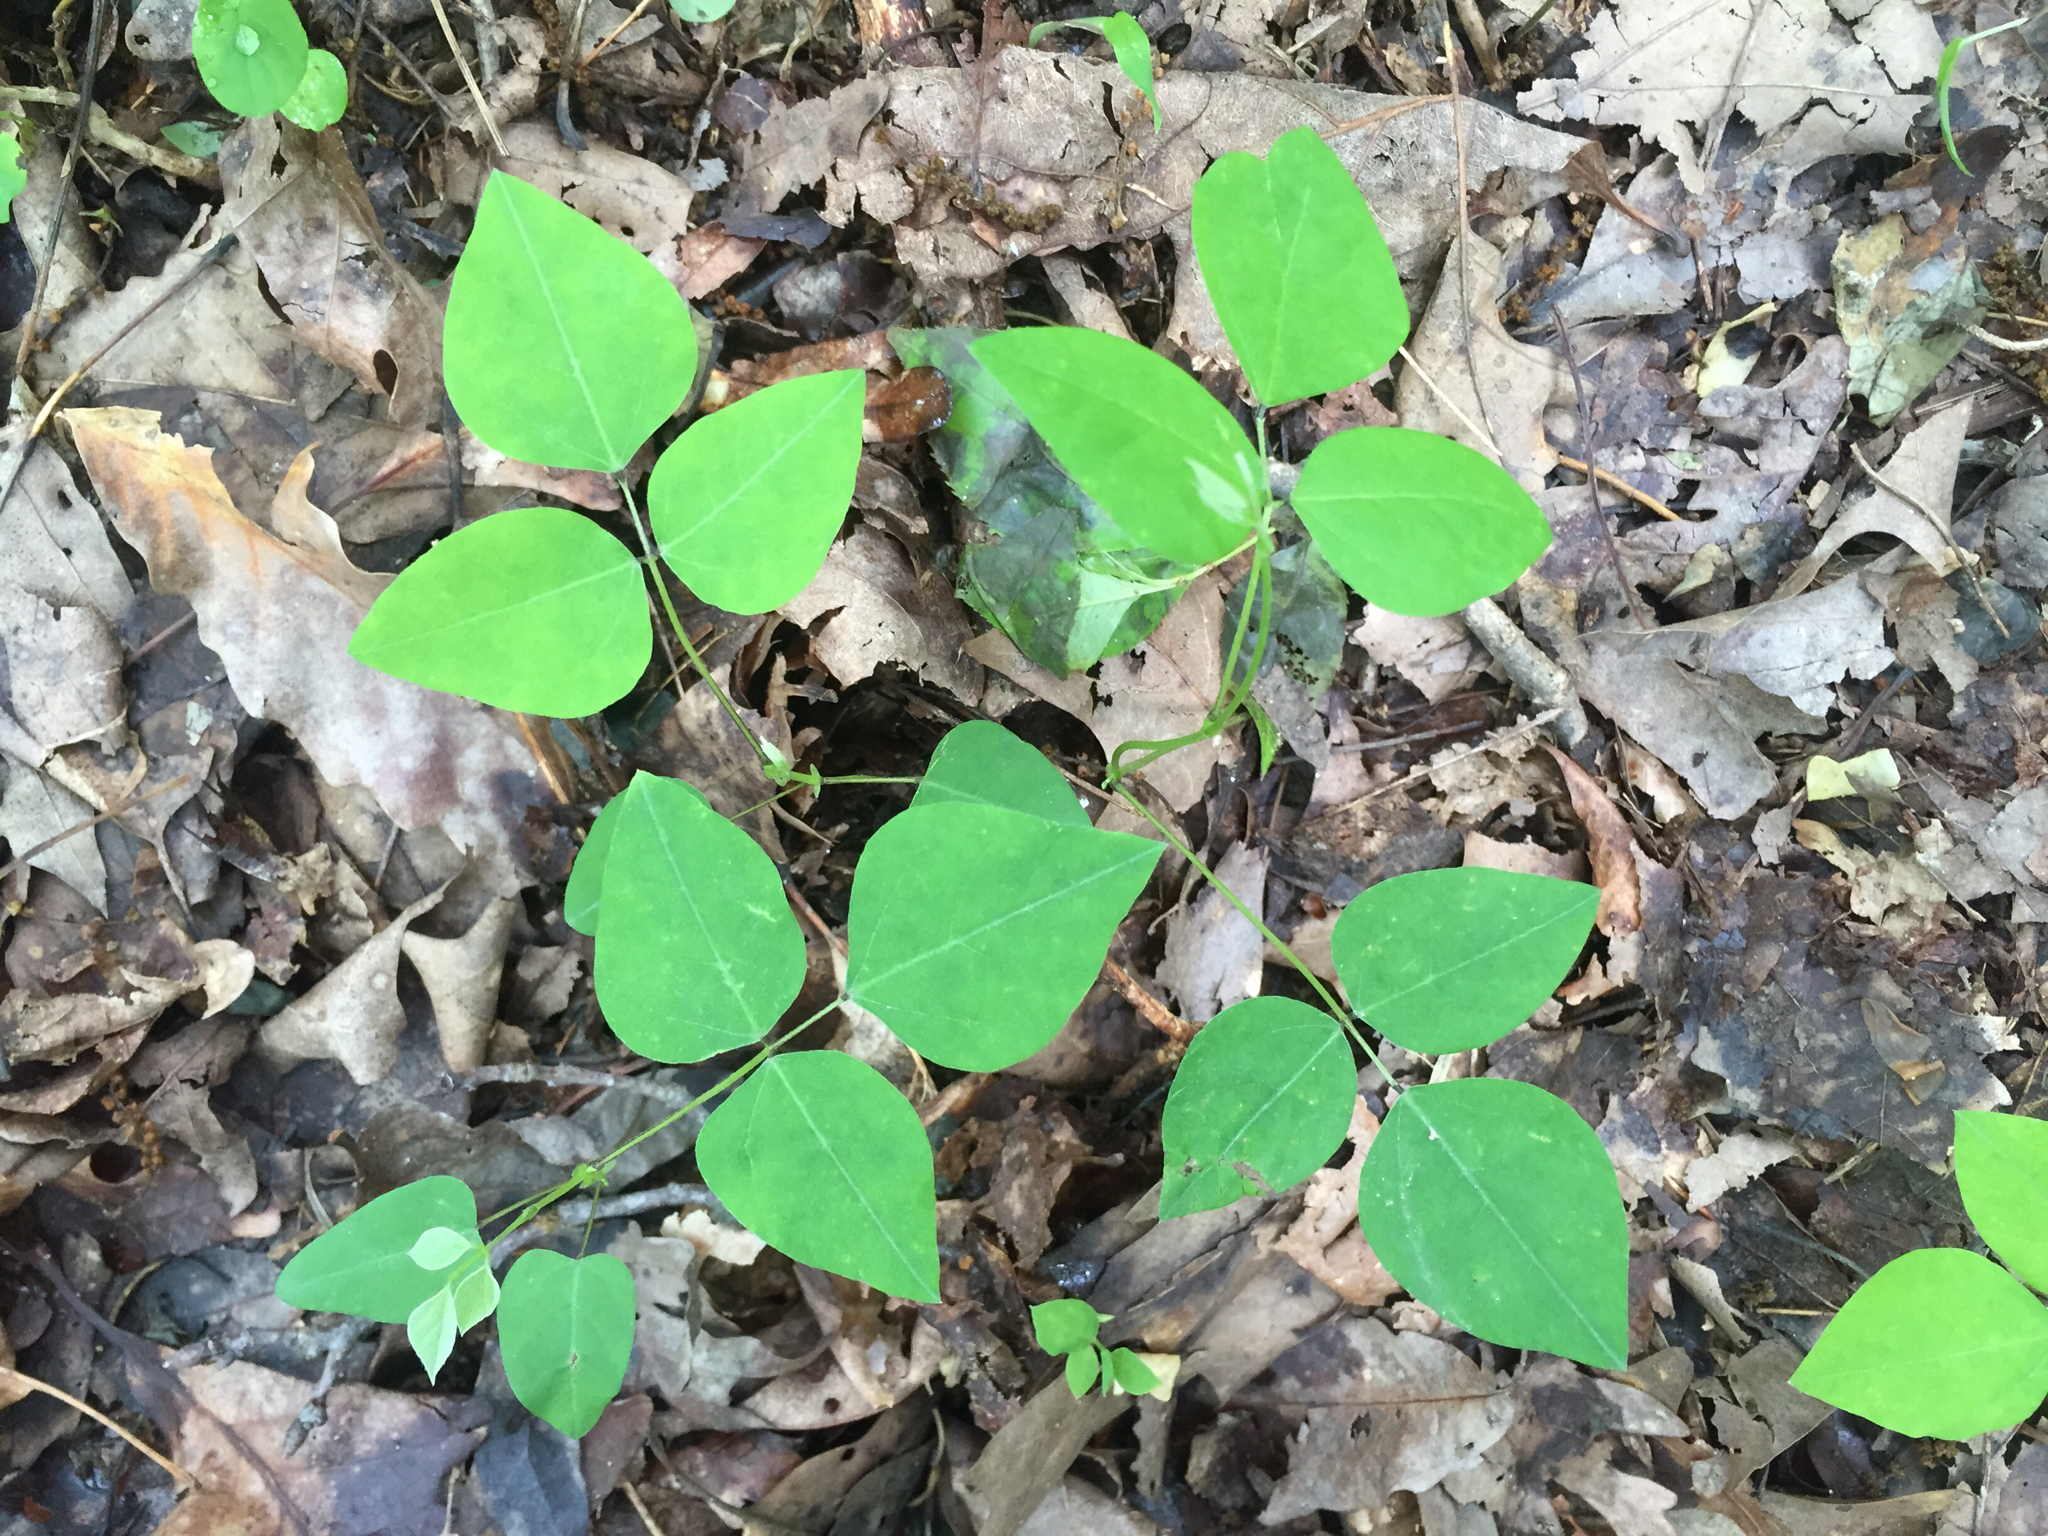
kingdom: Plantae
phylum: Tracheophyta
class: Magnoliopsida
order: Fabales
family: Fabaceae
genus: Amphicarpaea
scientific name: Amphicarpaea bracteata
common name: American hog peanut
